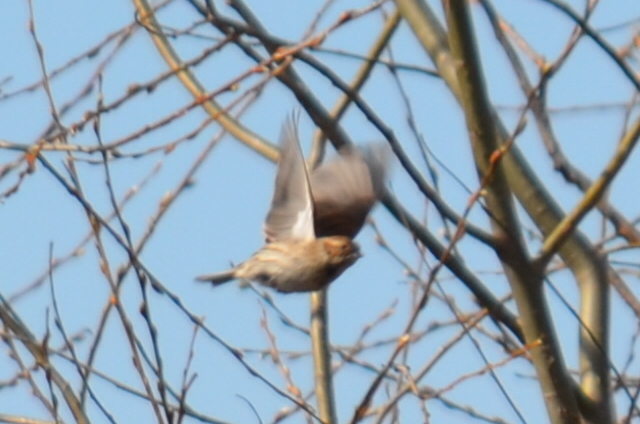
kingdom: Animalia
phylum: Chordata
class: Aves
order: Passeriformes
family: Emberizidae
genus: Emberiza
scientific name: Emberiza schoeniclus
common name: Reed bunting
